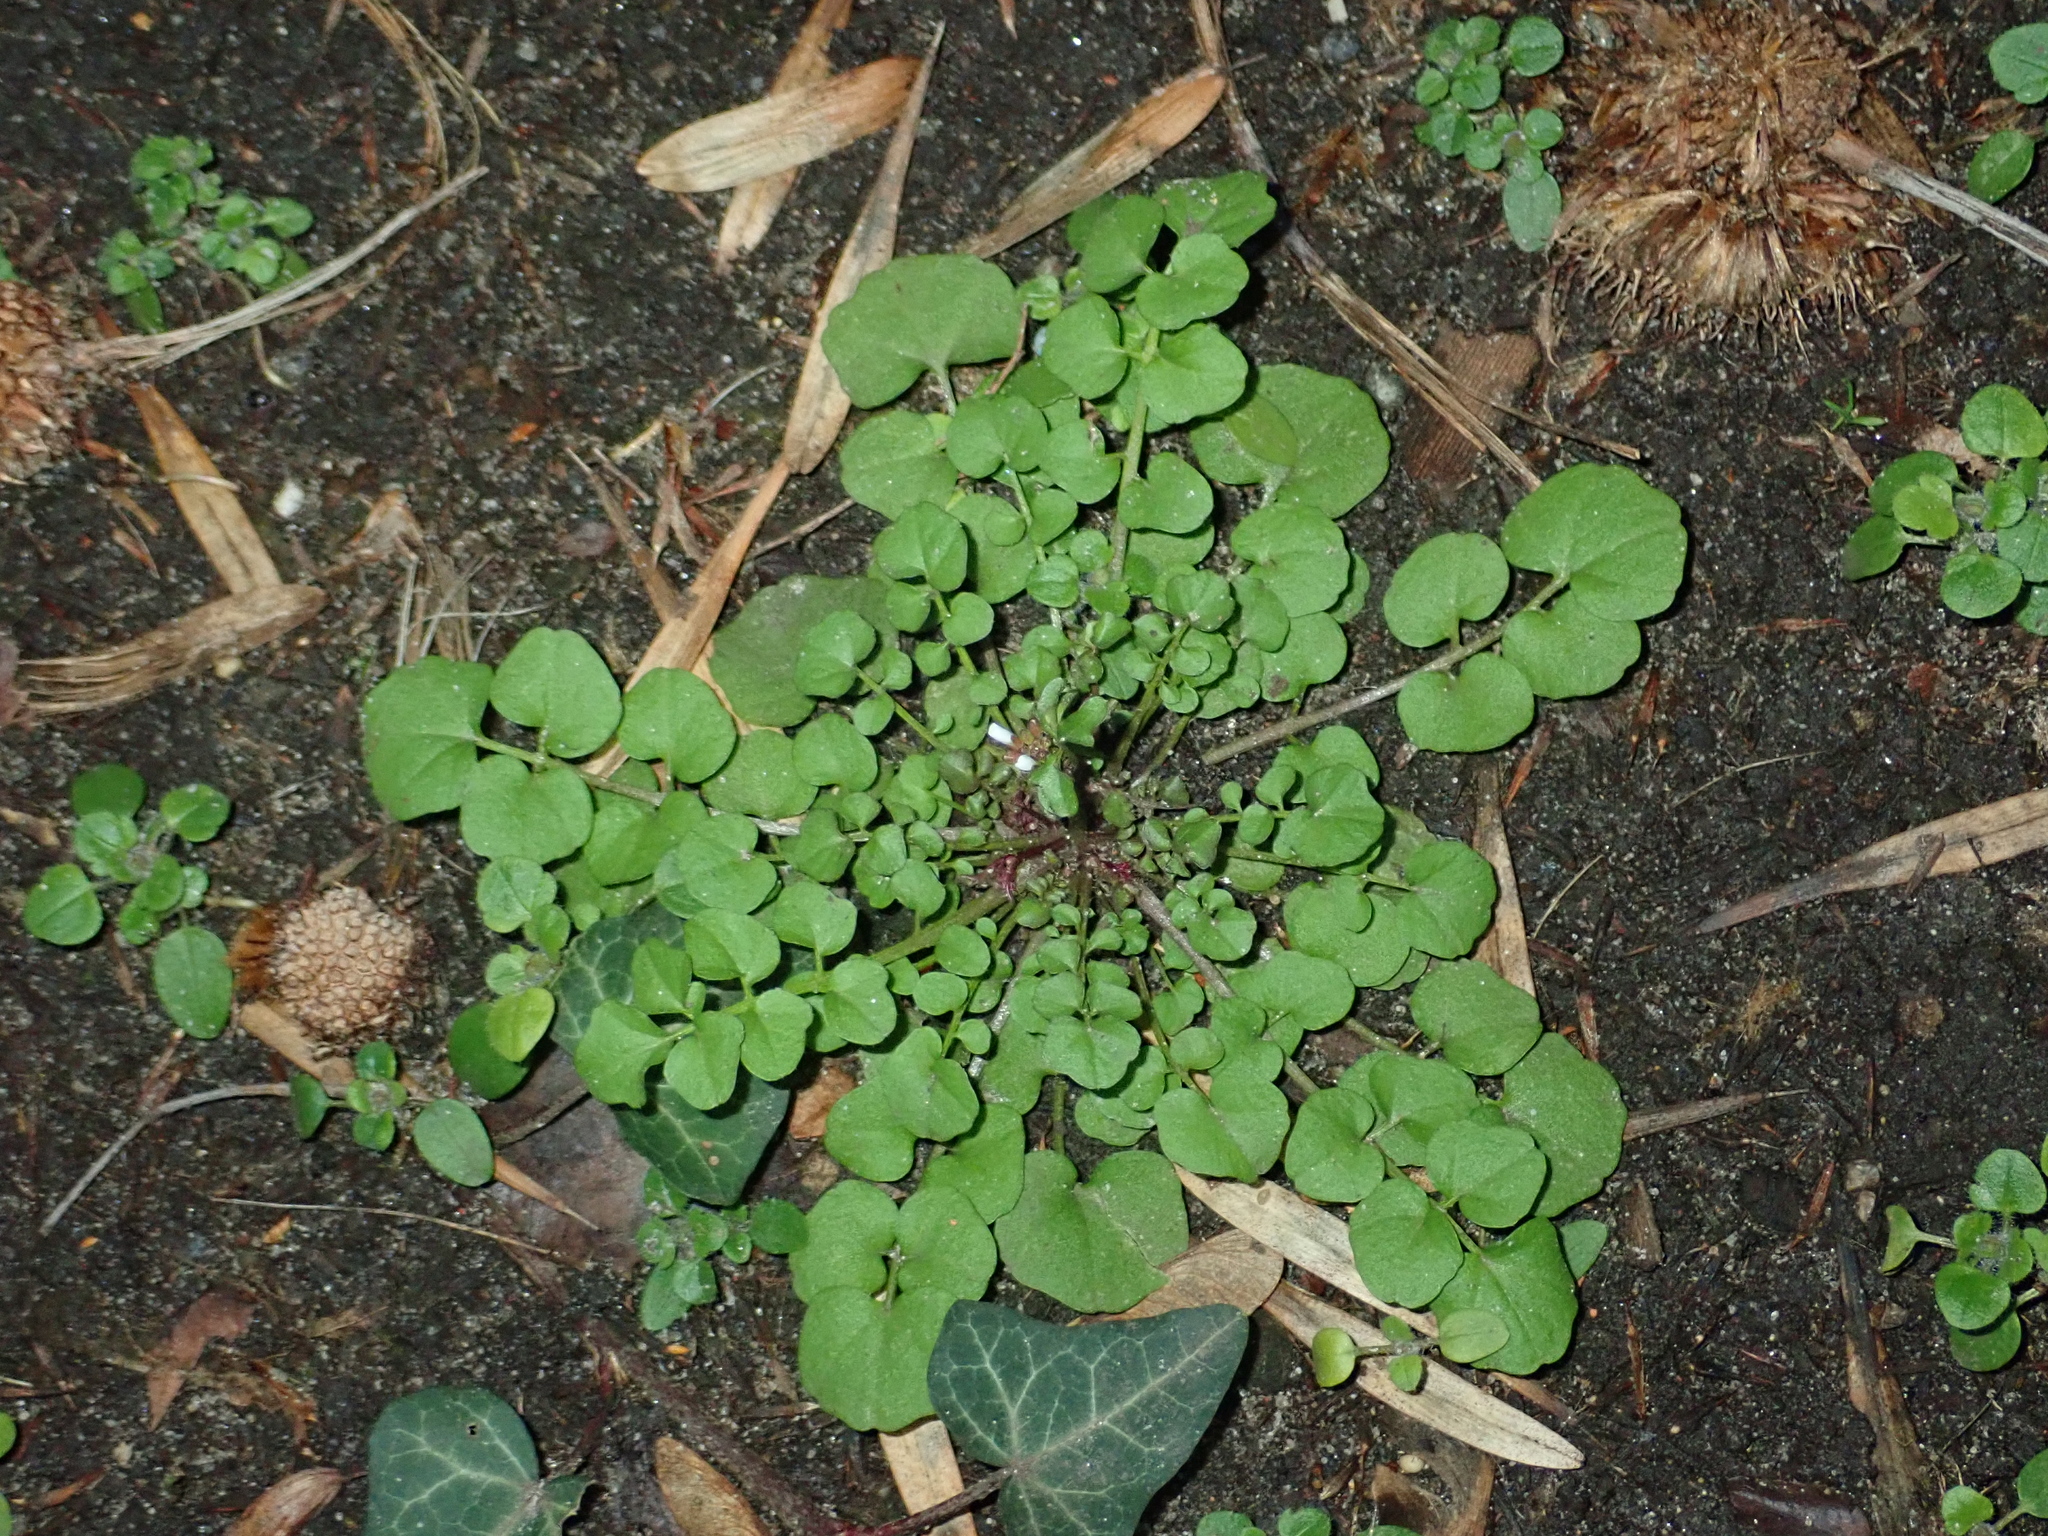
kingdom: Plantae
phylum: Tracheophyta
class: Magnoliopsida
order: Brassicales
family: Brassicaceae
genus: Cardamine
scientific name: Cardamine hirsuta
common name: Hairy bittercress
